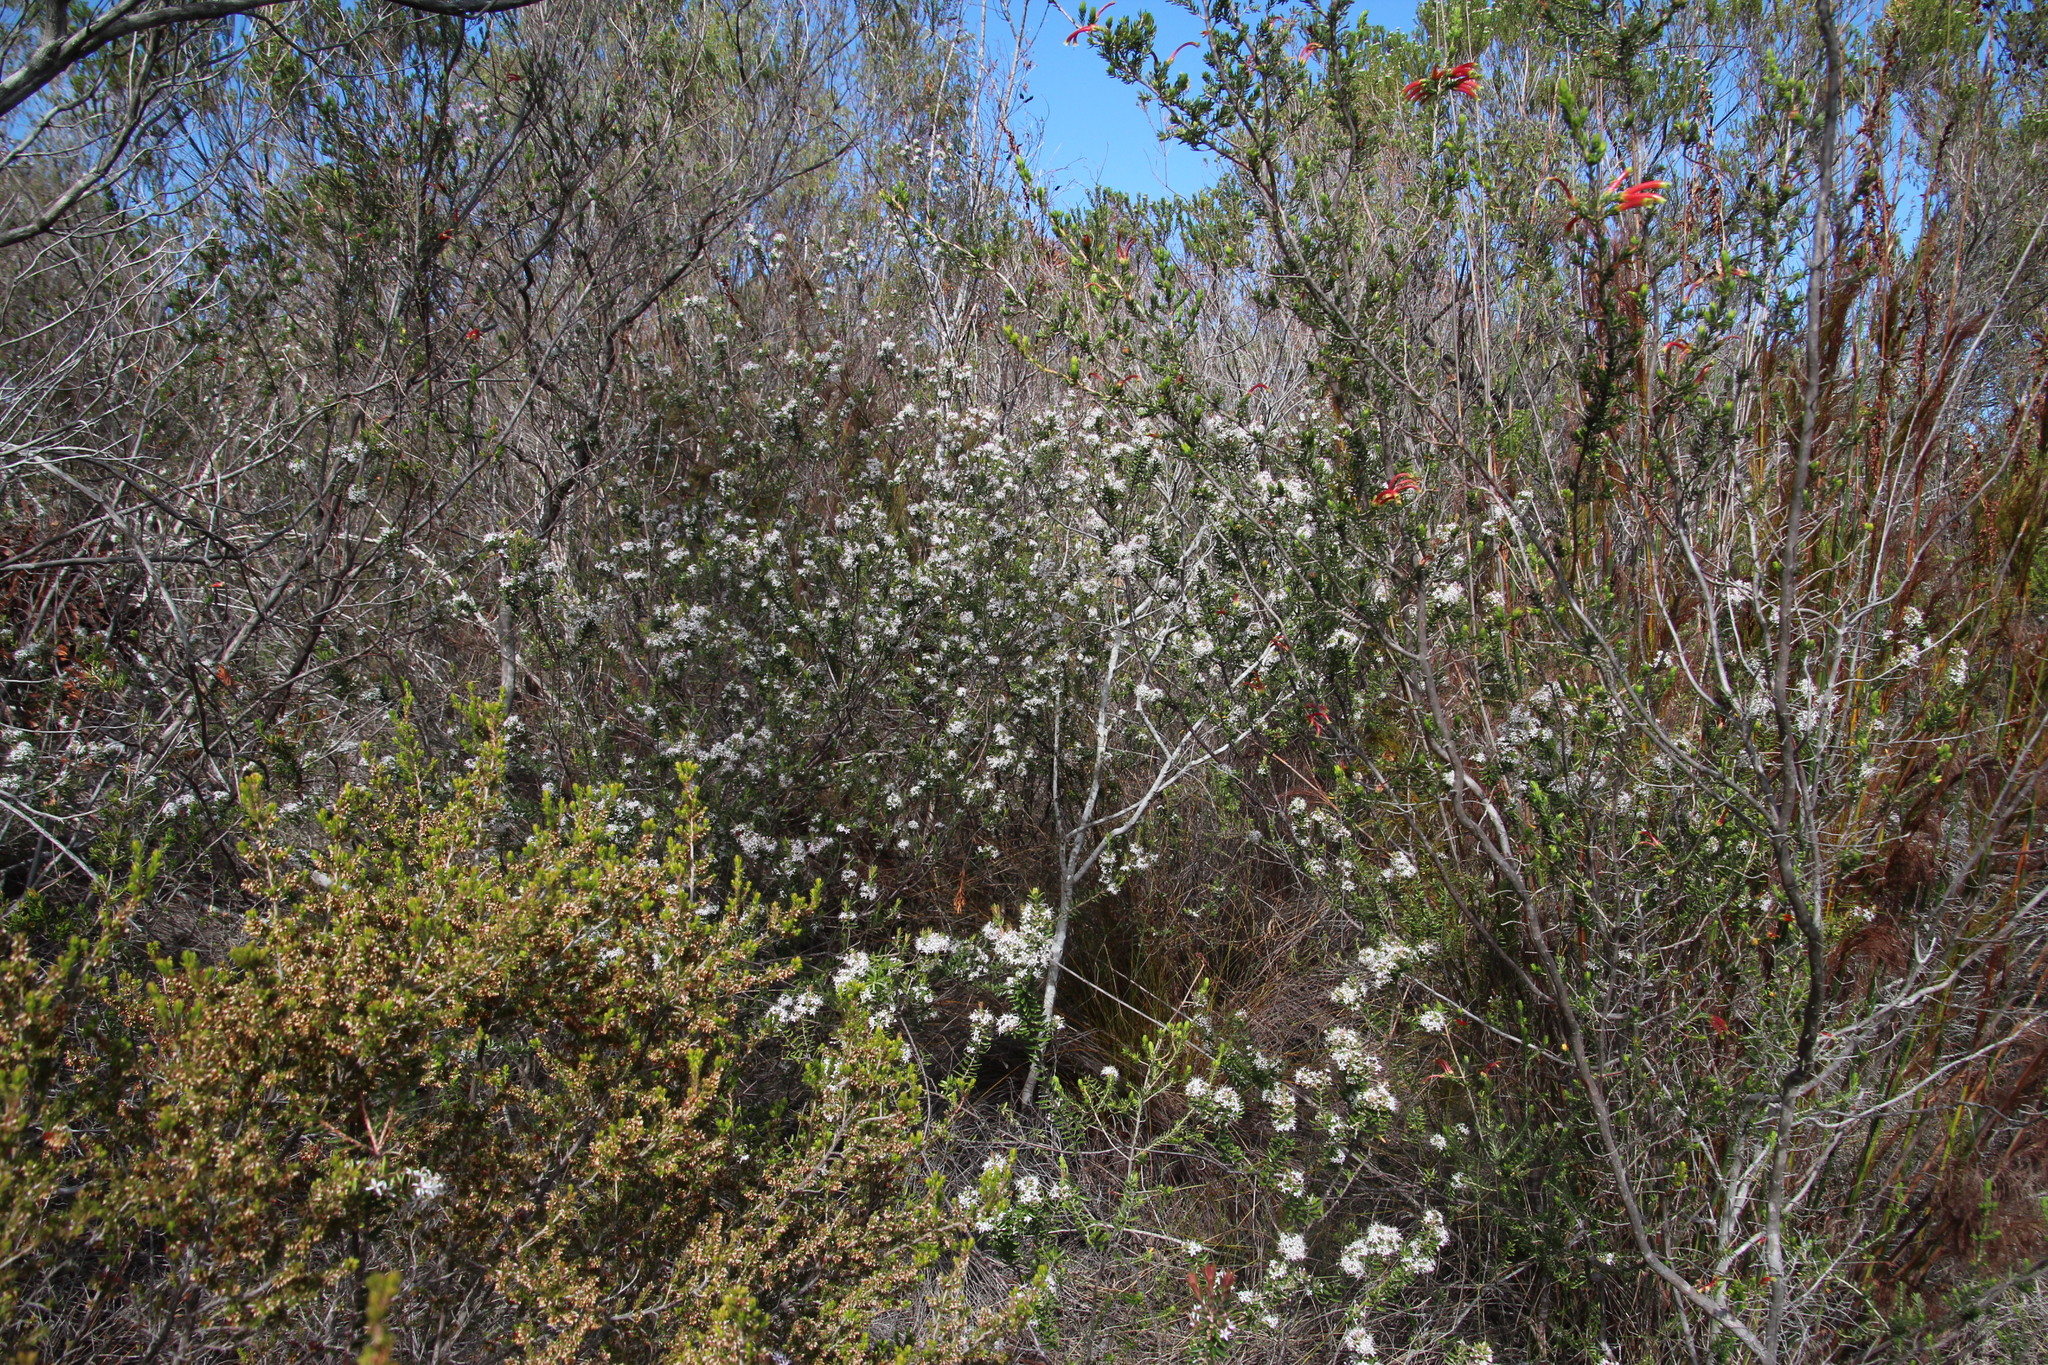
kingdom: Plantae
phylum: Tracheophyta
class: Magnoliopsida
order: Sapindales
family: Rutaceae
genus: Agathosma
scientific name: Agathosma ovata
